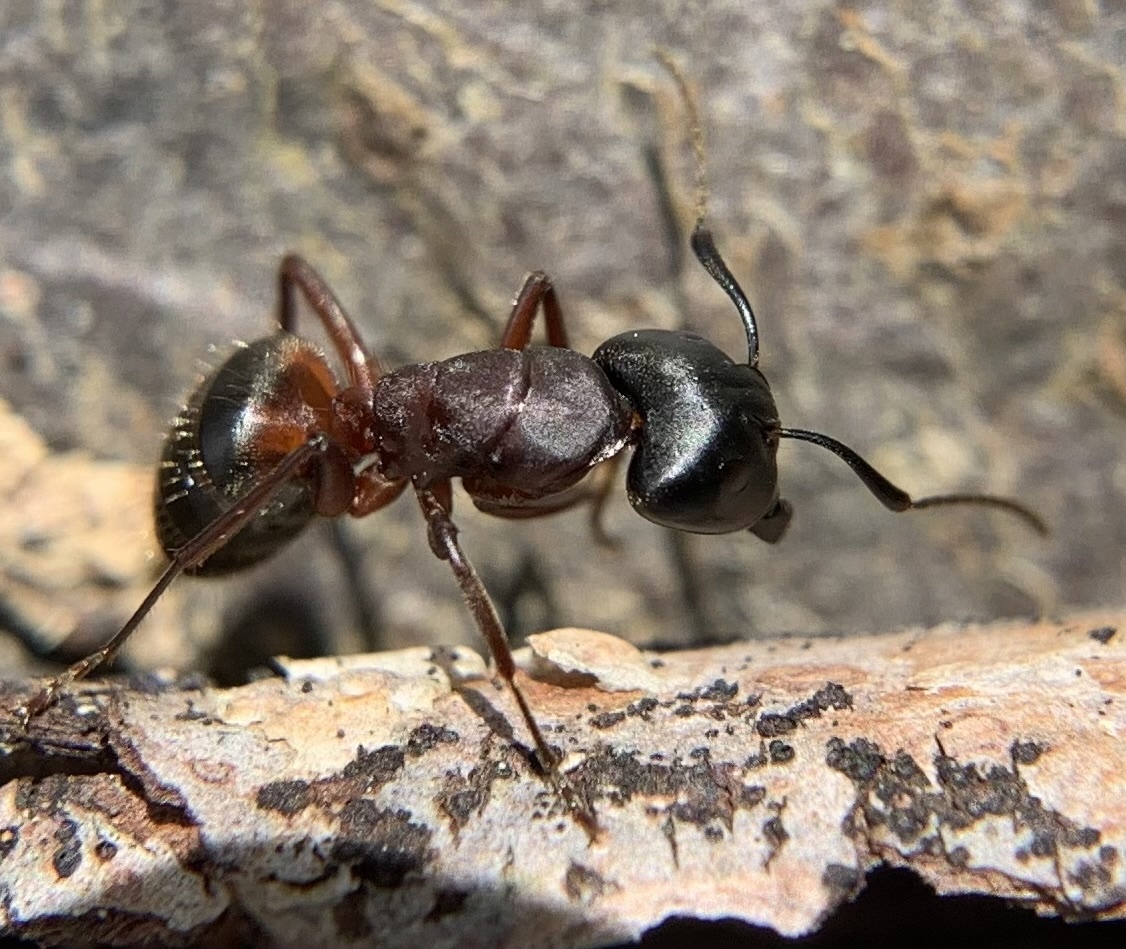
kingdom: Animalia
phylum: Arthropoda
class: Insecta
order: Hymenoptera
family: Formicidae
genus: Camponotus
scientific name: Camponotus ligniperdus
